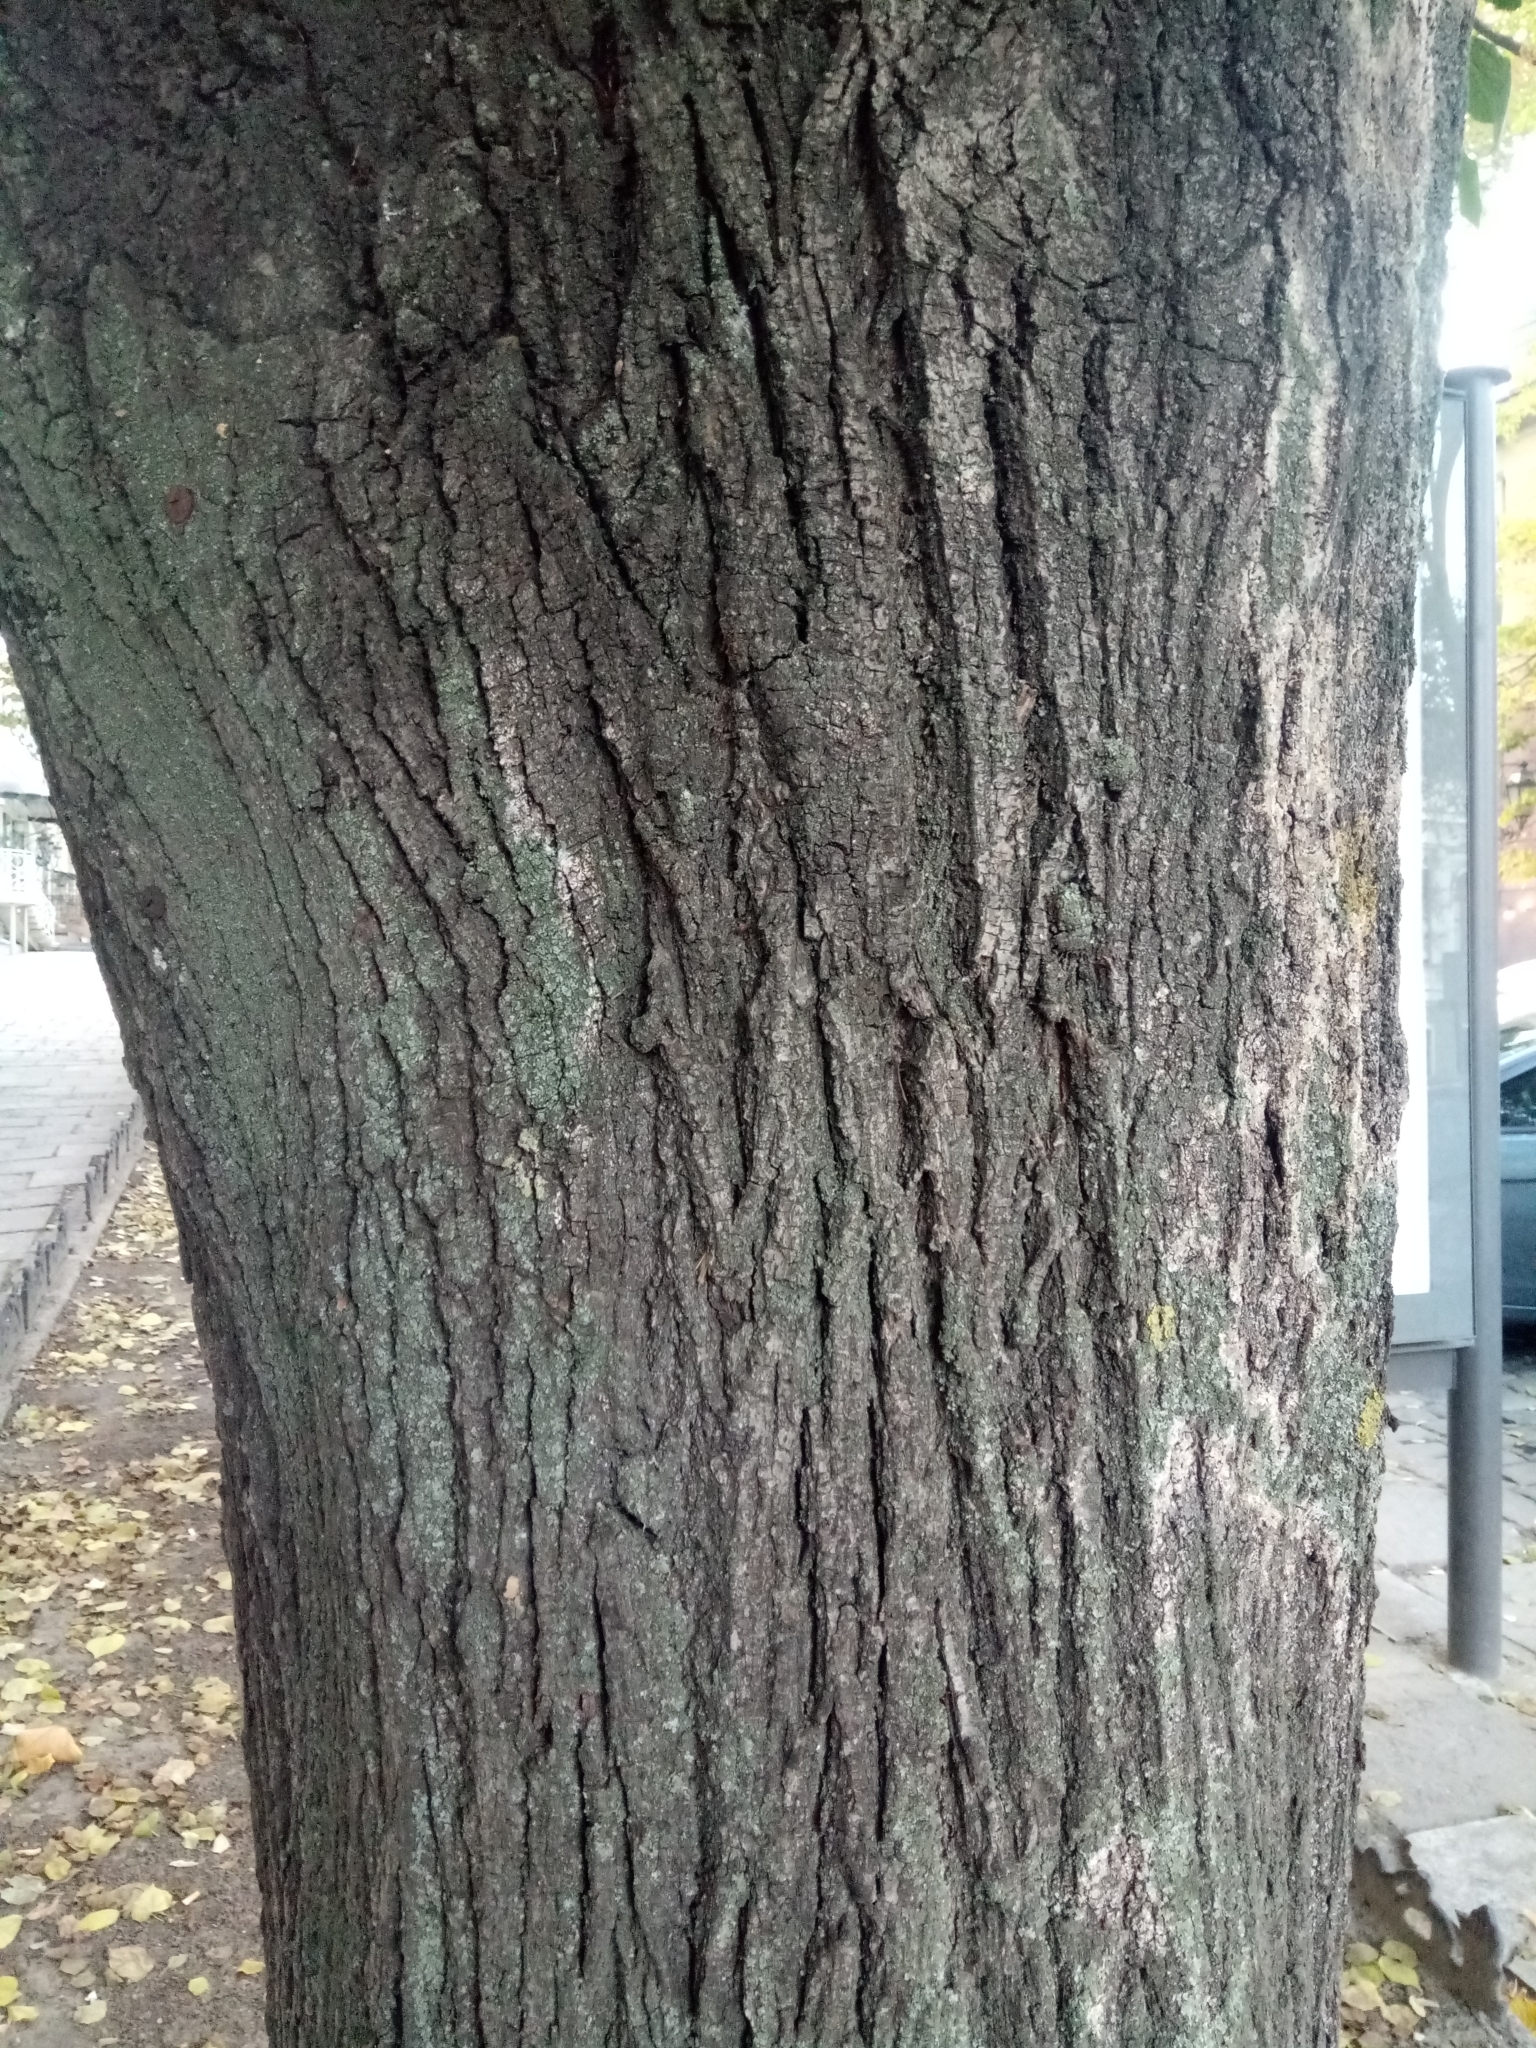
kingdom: Plantae
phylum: Tracheophyta
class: Magnoliopsida
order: Rosales
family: Cannabaceae
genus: Celtis
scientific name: Celtis occidentalis
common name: Common hackberry
